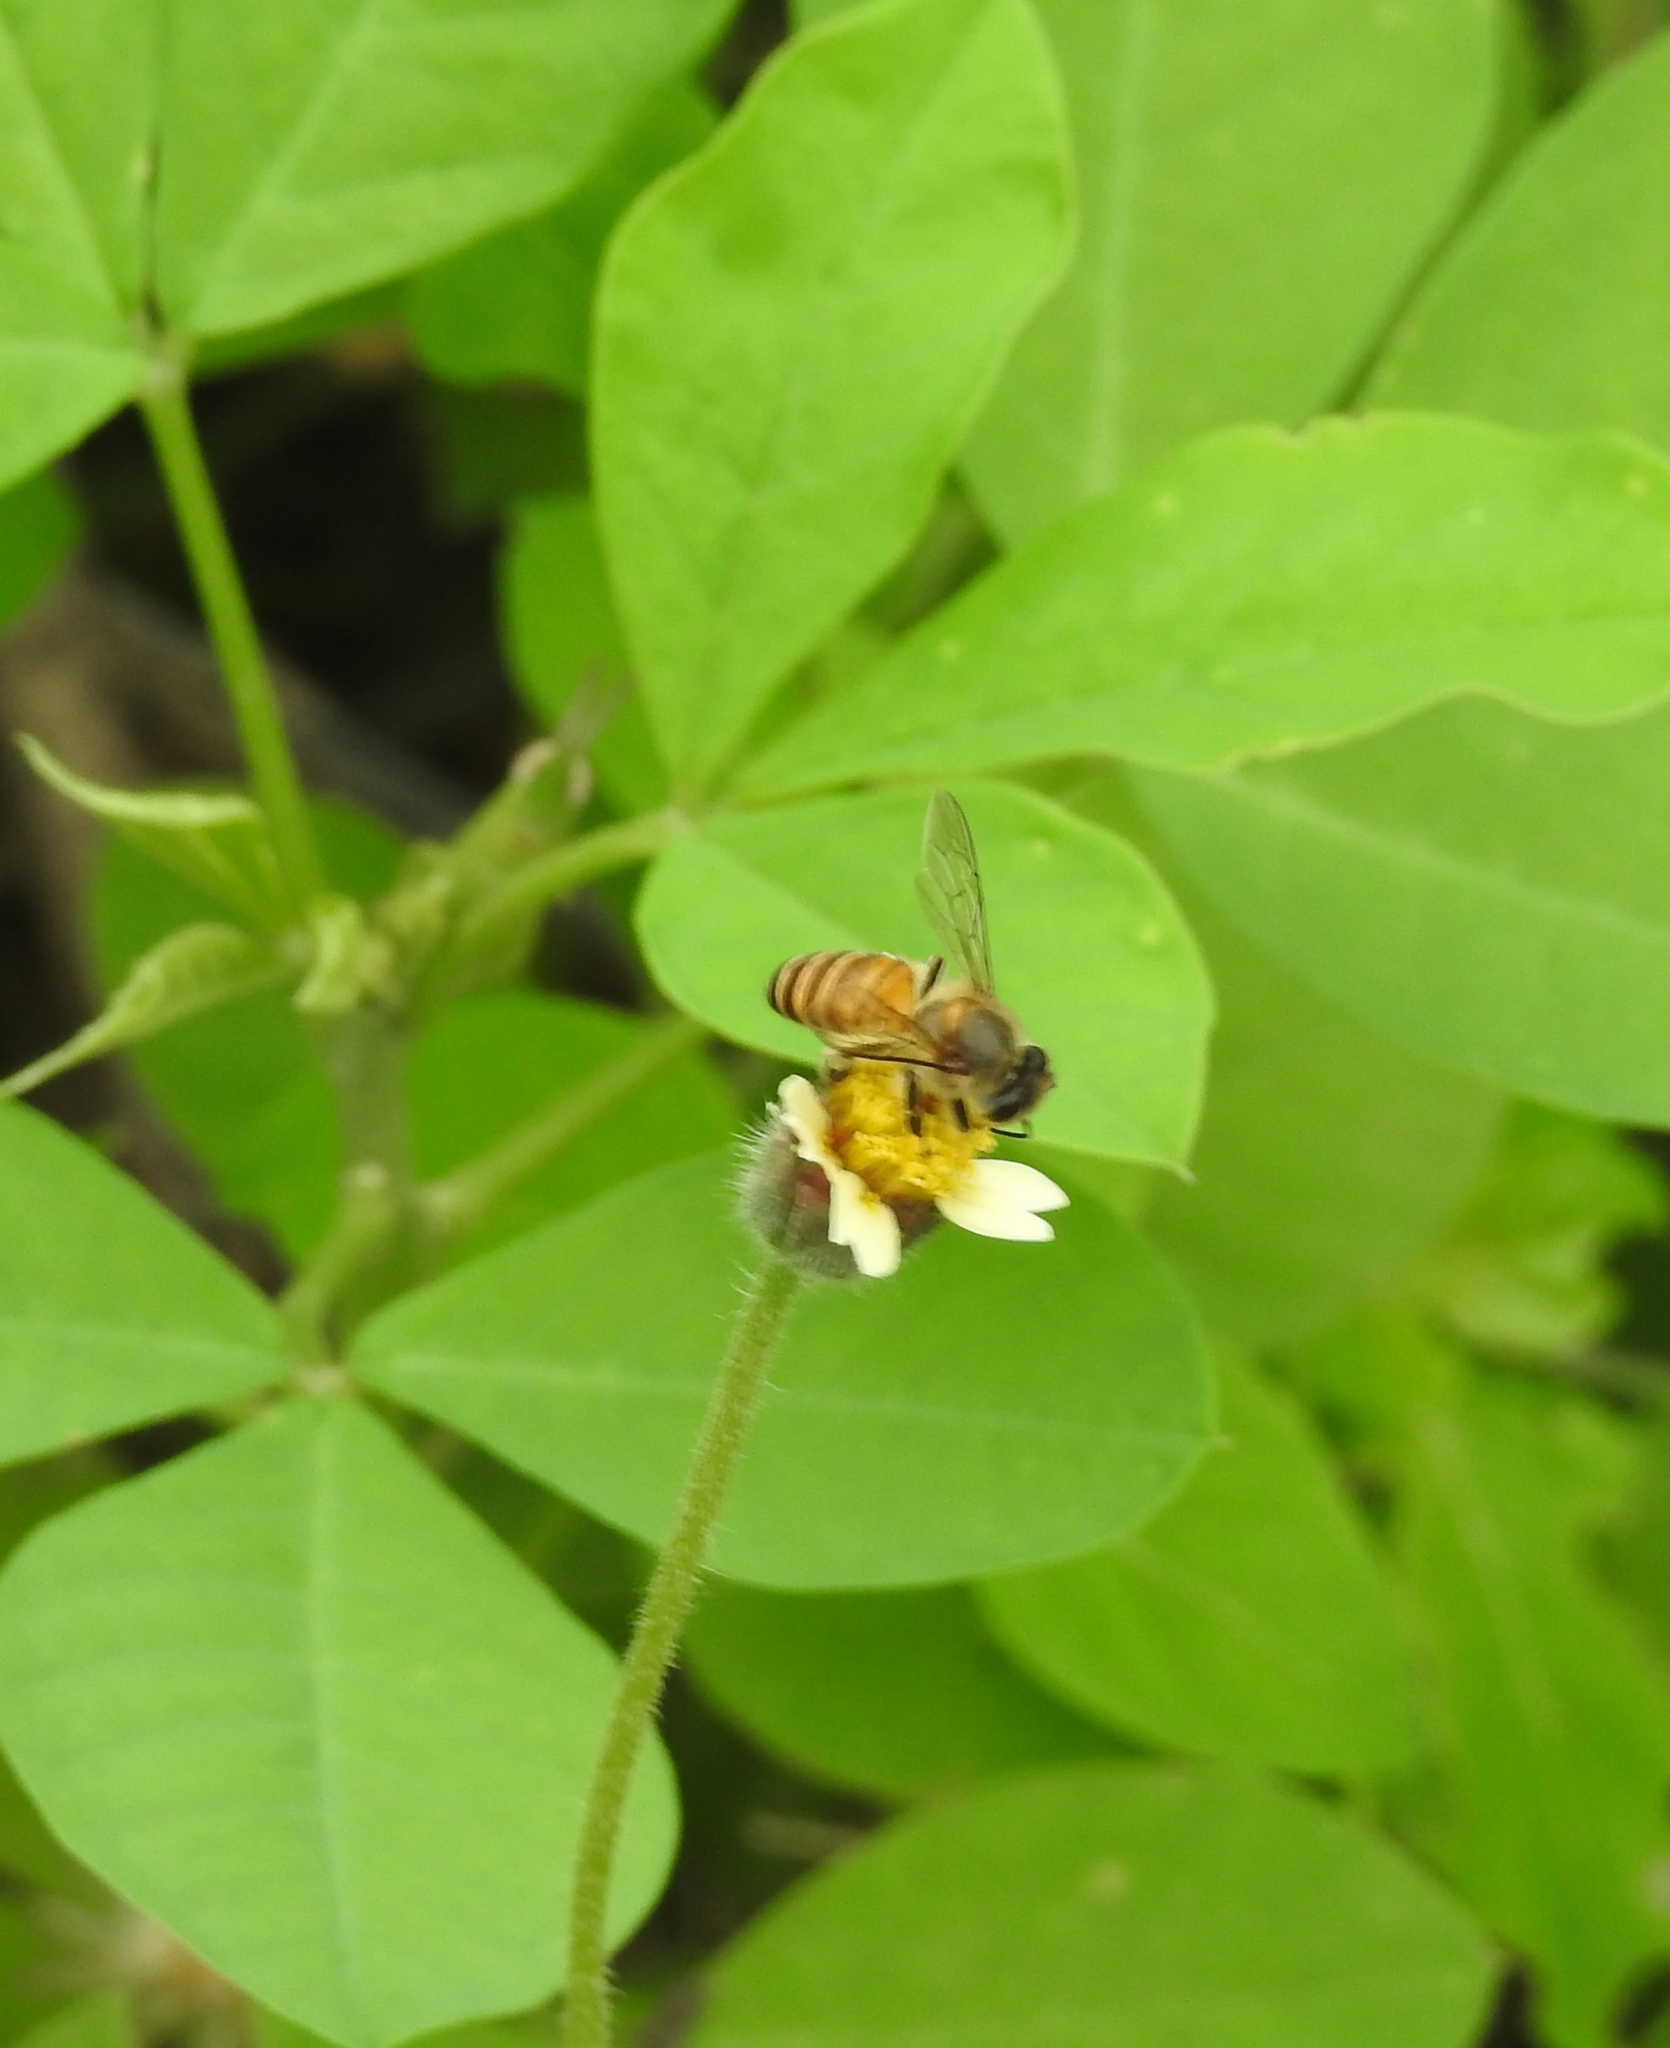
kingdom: Animalia
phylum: Arthropoda
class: Insecta
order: Hymenoptera
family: Apidae
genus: Apis
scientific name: Apis cerana
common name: Honey bee
